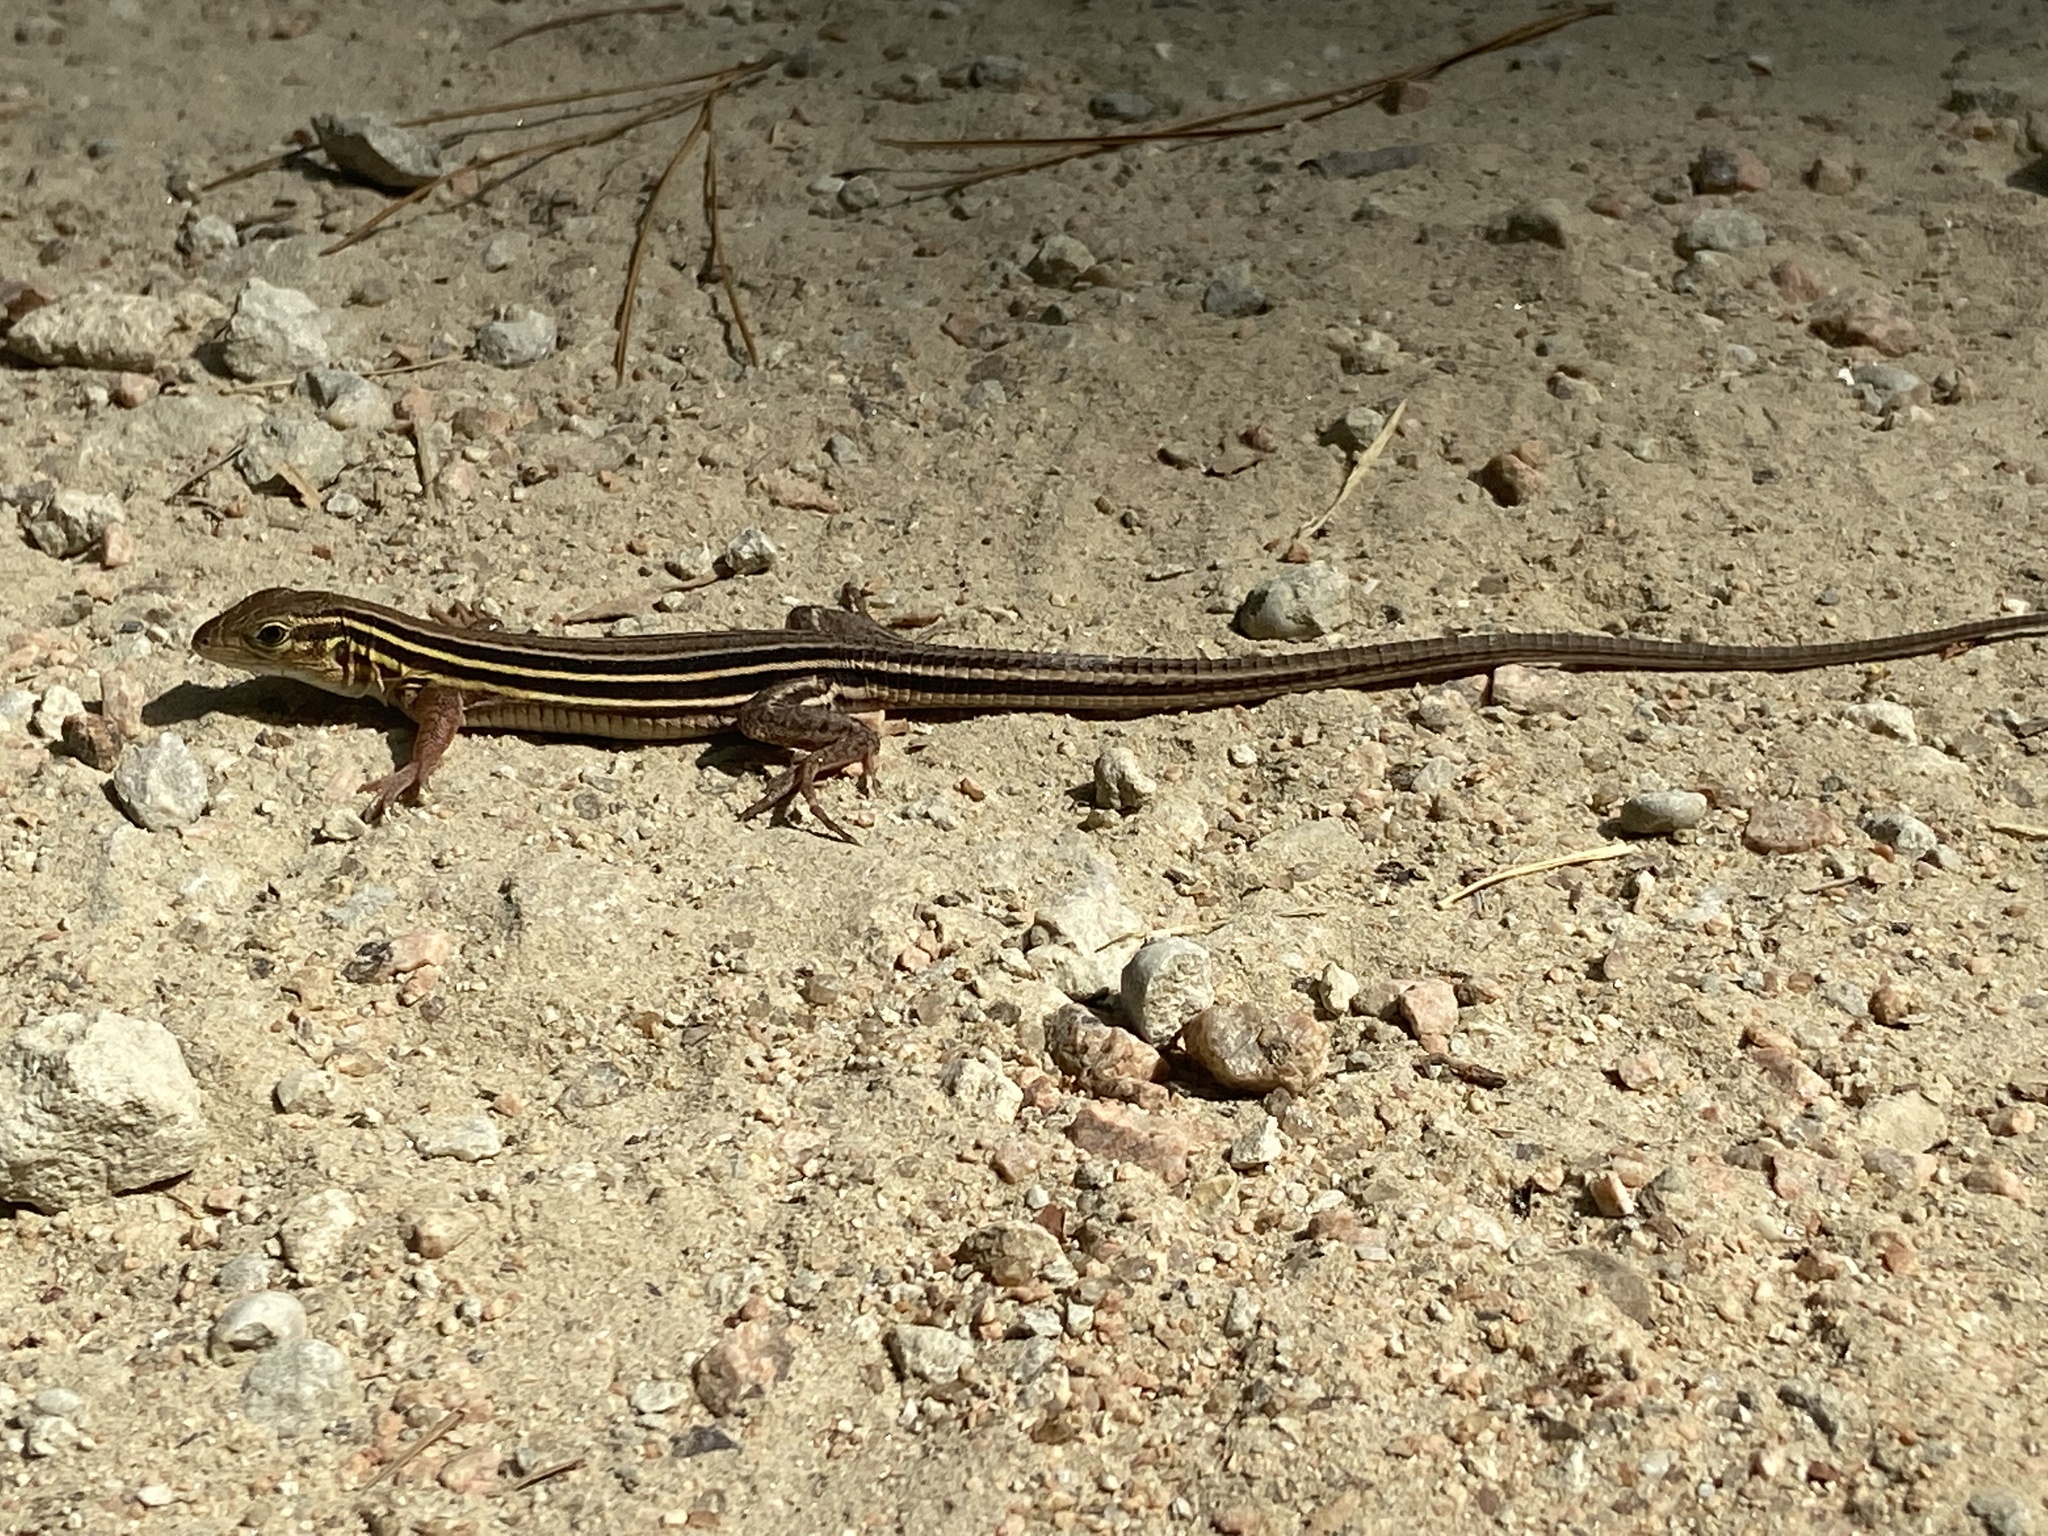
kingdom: Animalia
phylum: Chordata
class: Squamata
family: Teiidae
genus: Aspidoscelis
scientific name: Aspidoscelis sexlineatus
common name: Six-lined racerunner
